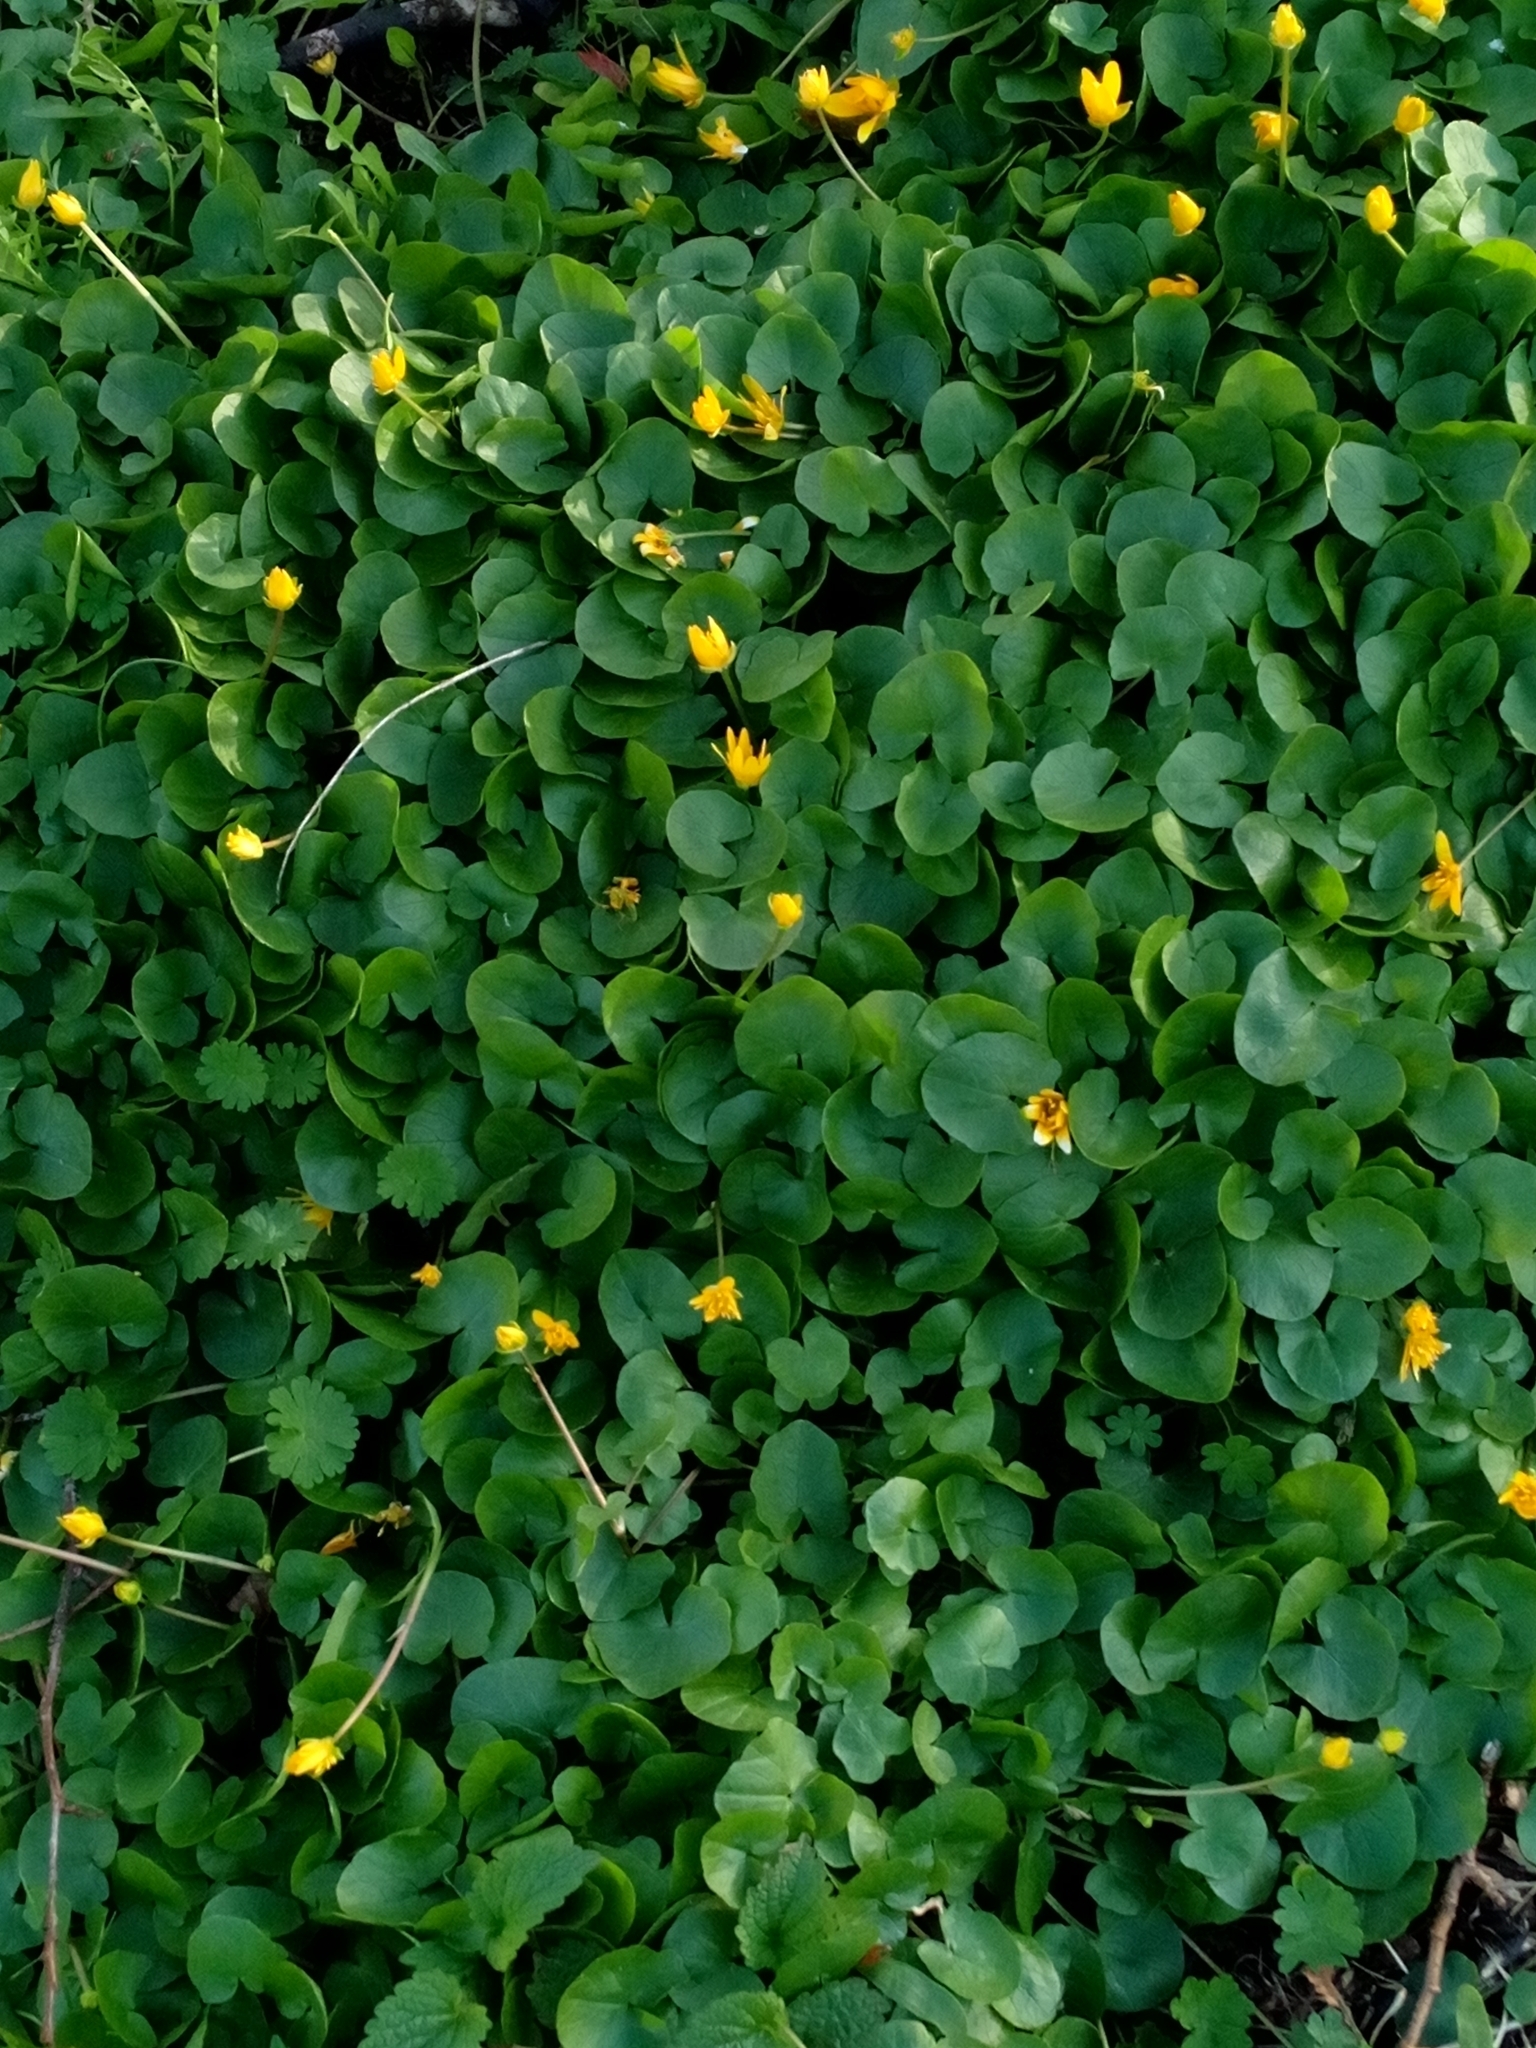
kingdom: Plantae
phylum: Tracheophyta
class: Magnoliopsida
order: Ranunculales
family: Ranunculaceae
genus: Ficaria
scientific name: Ficaria verna
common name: Lesser celandine
